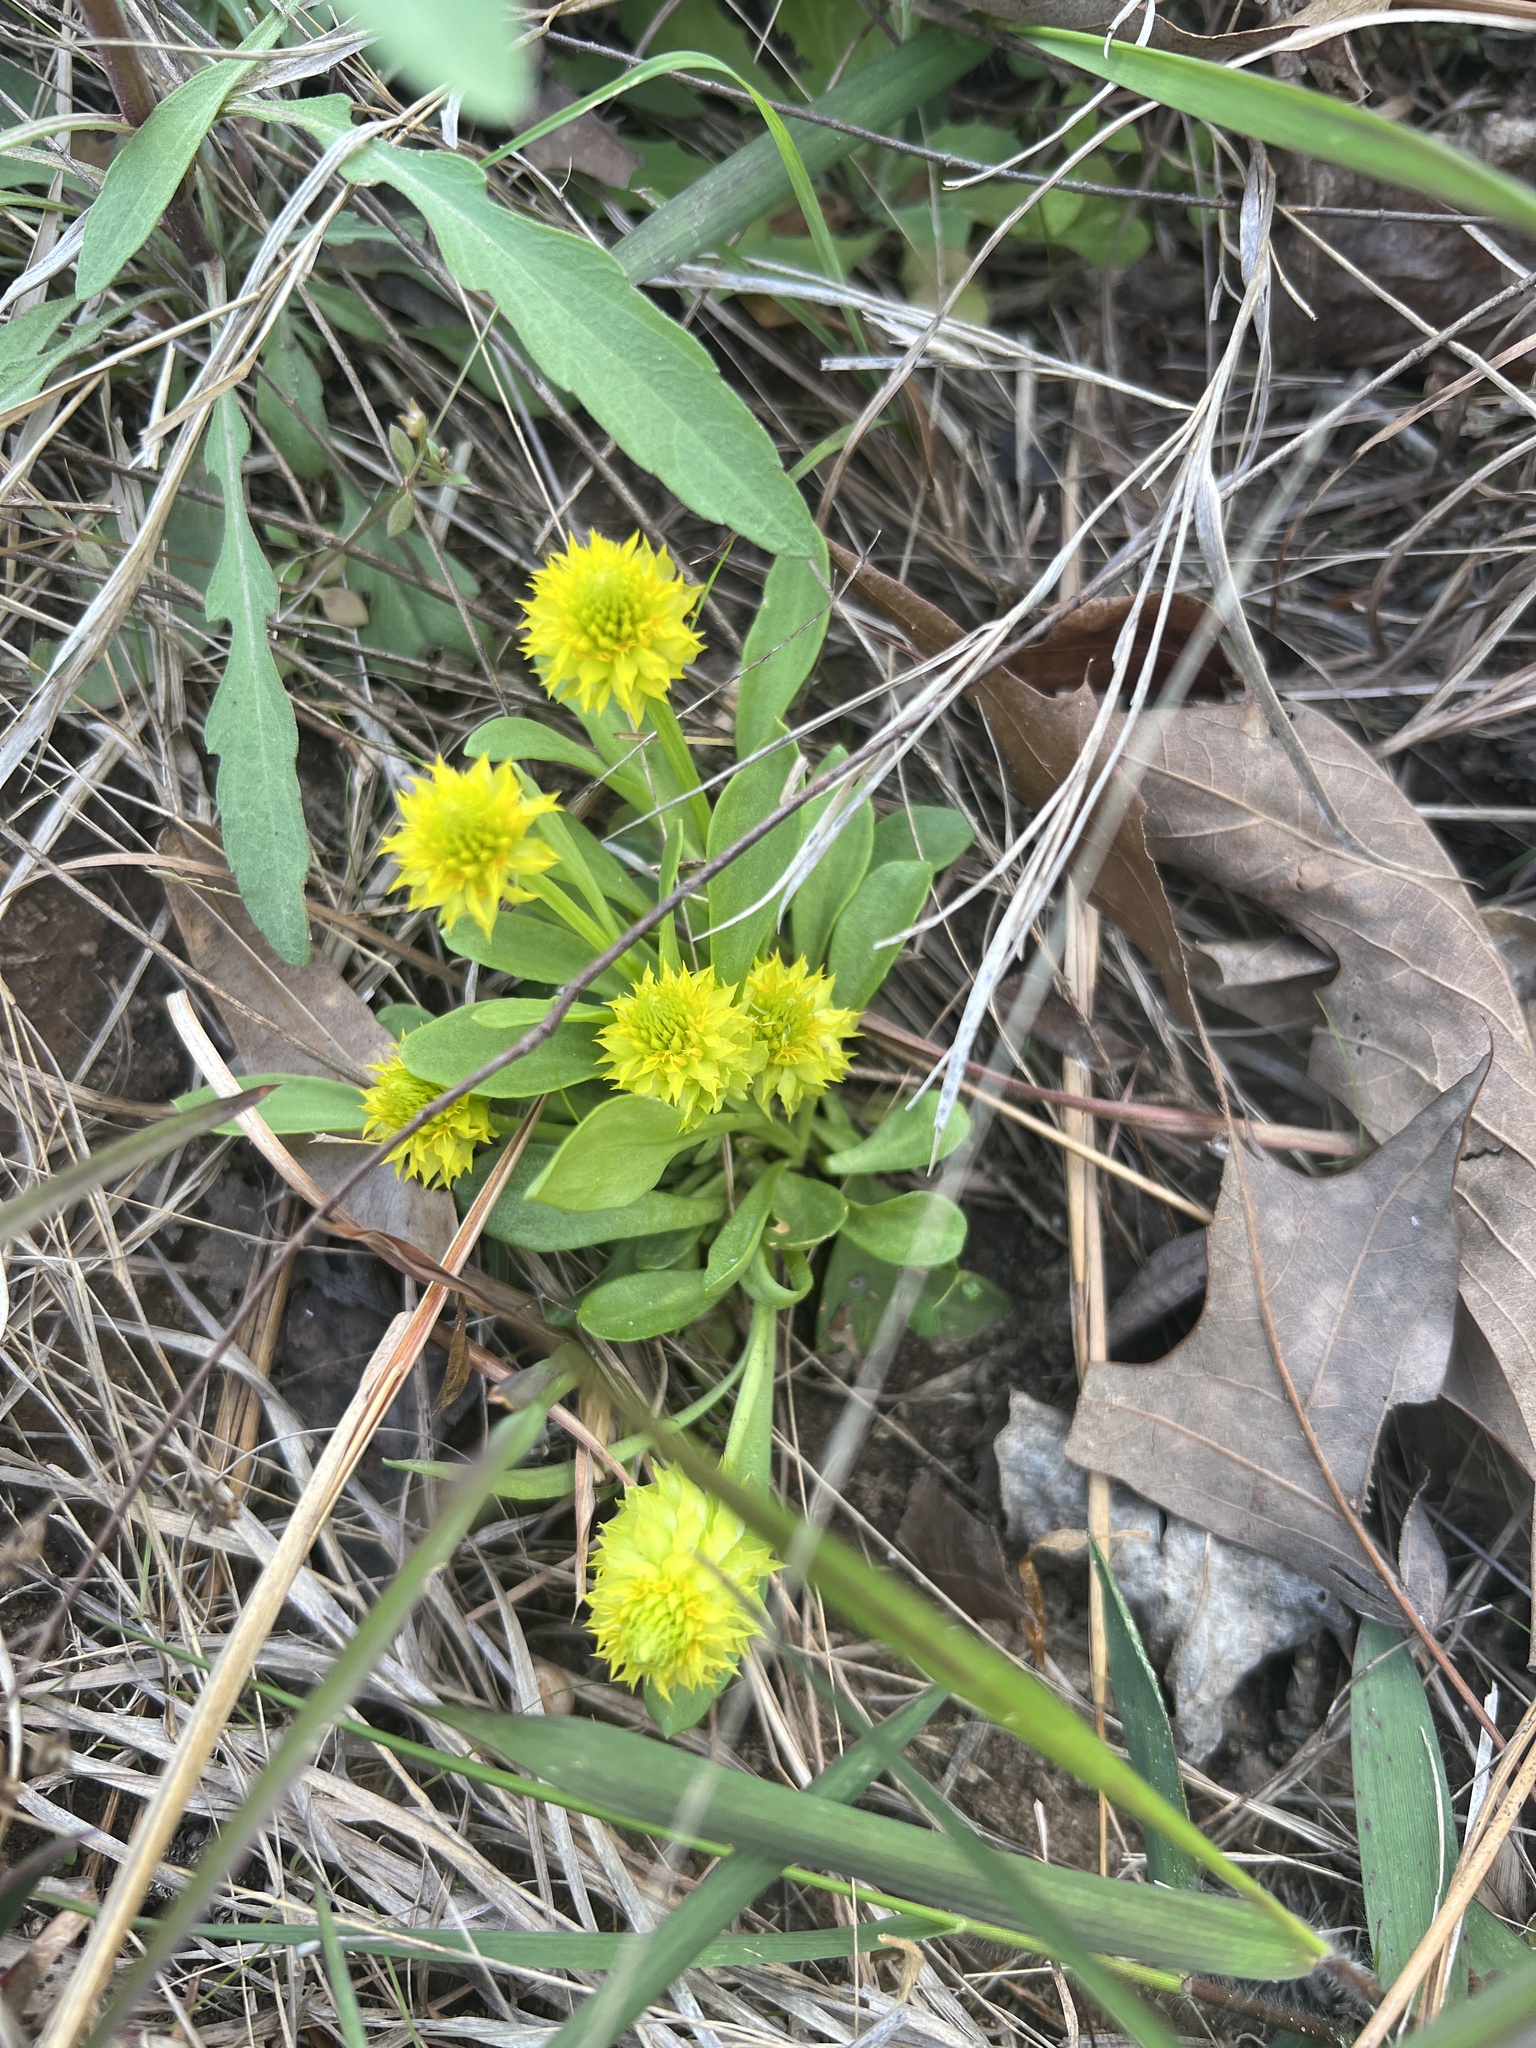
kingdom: Plantae
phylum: Tracheophyta
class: Magnoliopsida
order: Fabales
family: Polygalaceae
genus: Polygala
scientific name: Polygala nana
